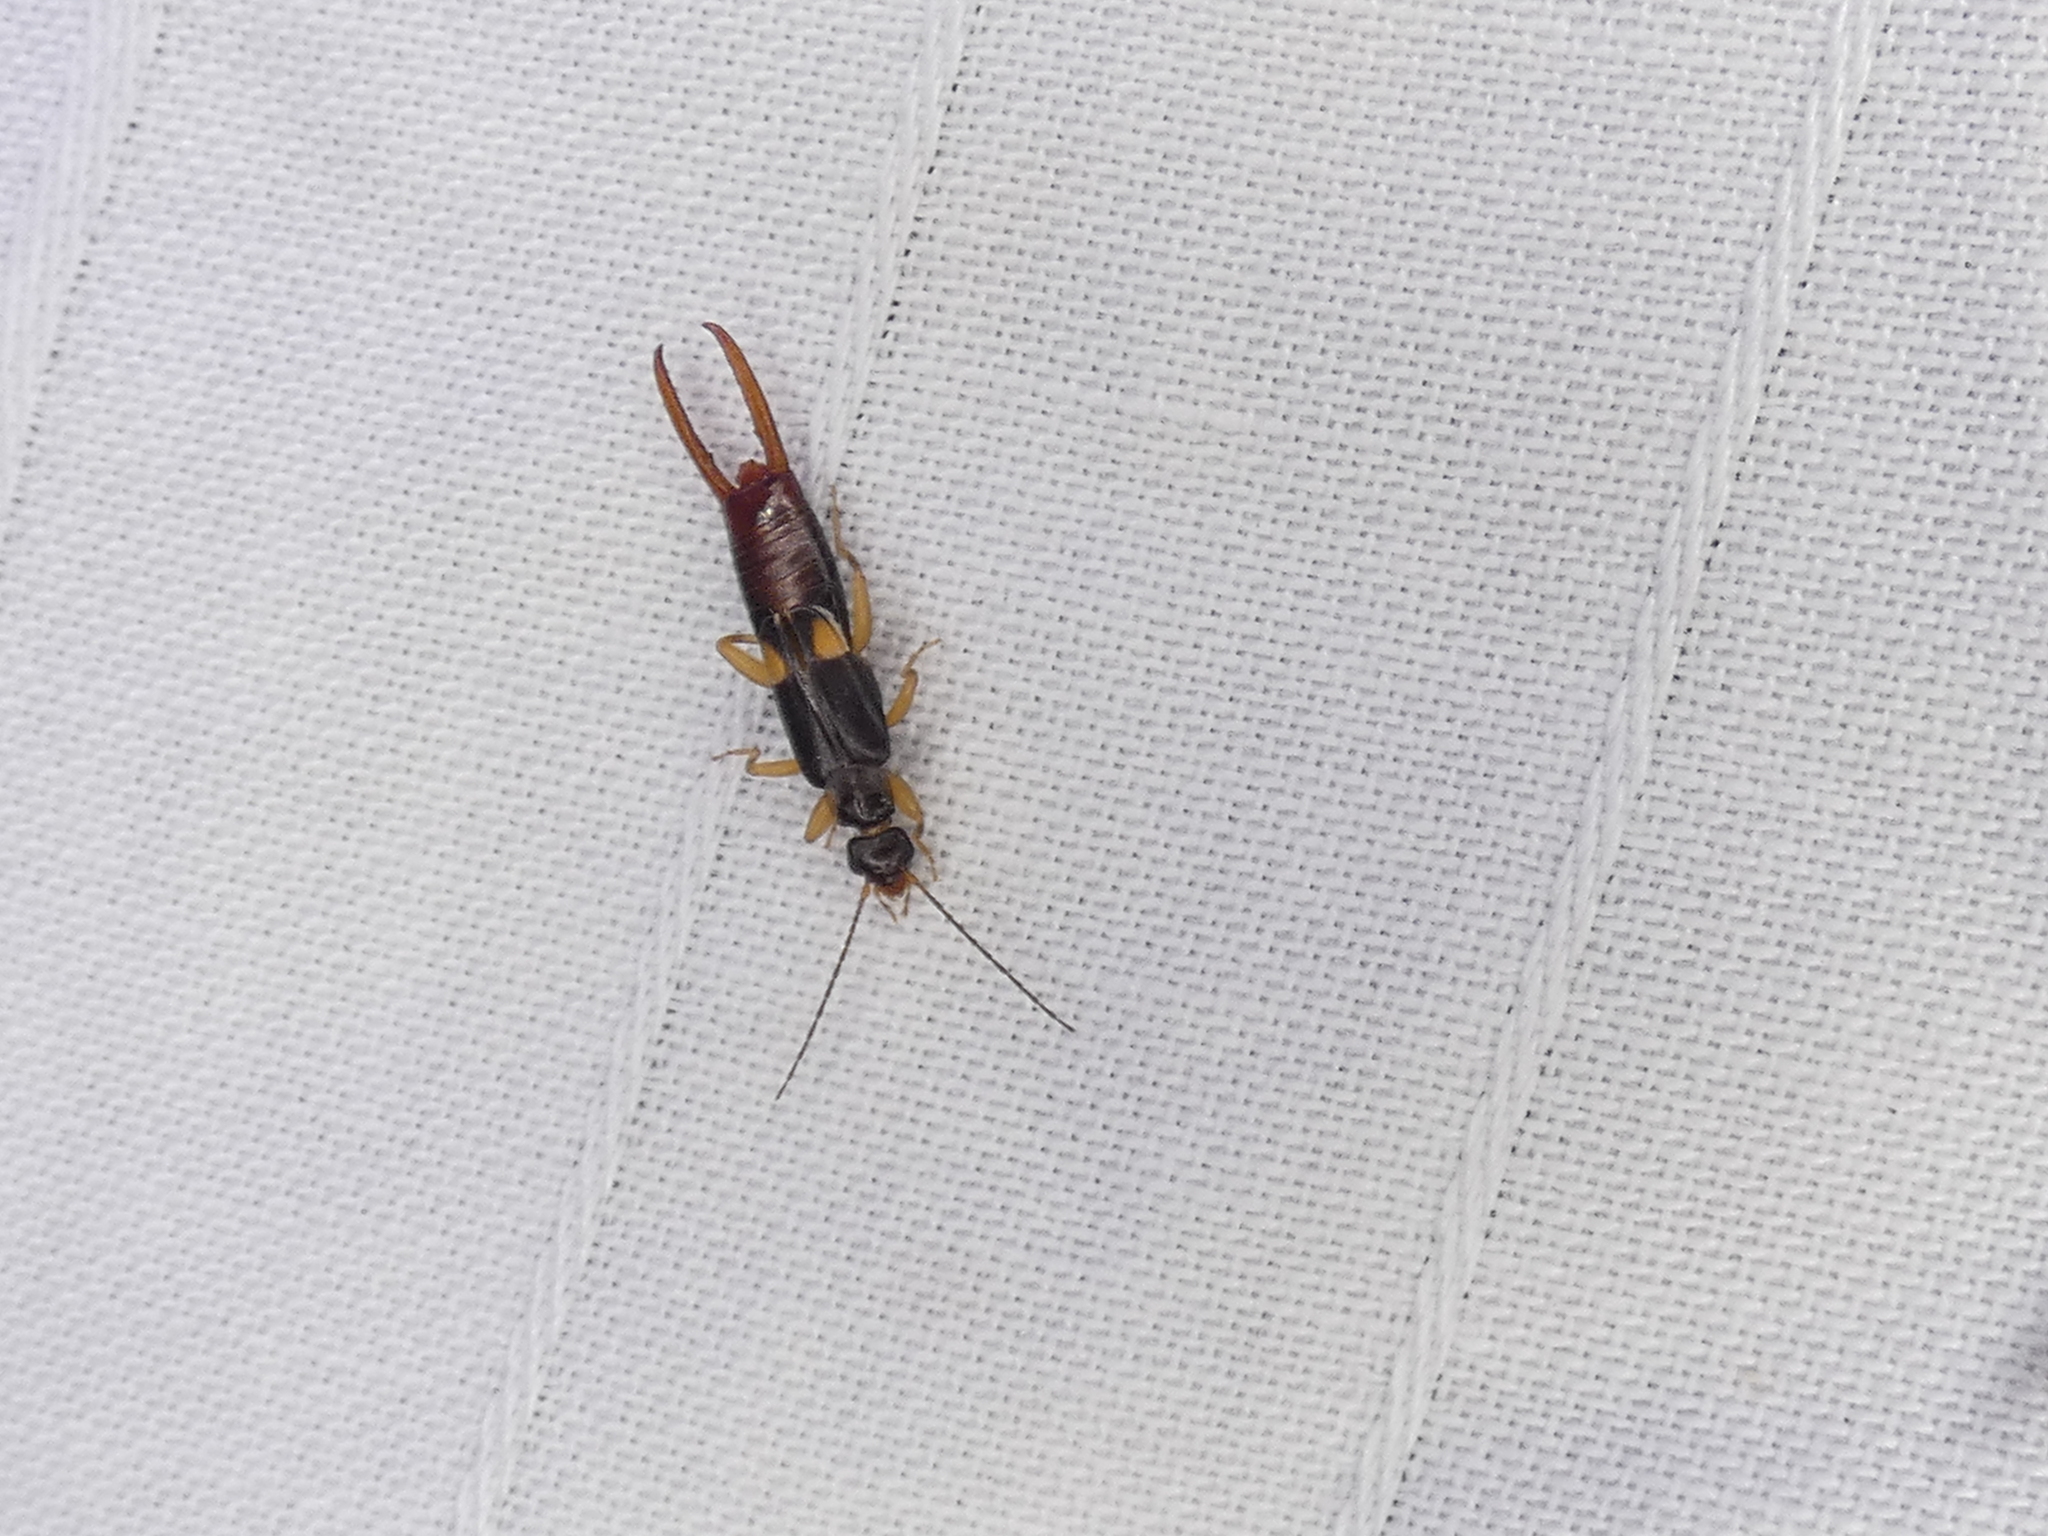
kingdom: Animalia
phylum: Arthropoda
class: Insecta
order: Dermaptera
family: Spongiphoridae
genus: Vostox
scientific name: Vostox brunneipennis
